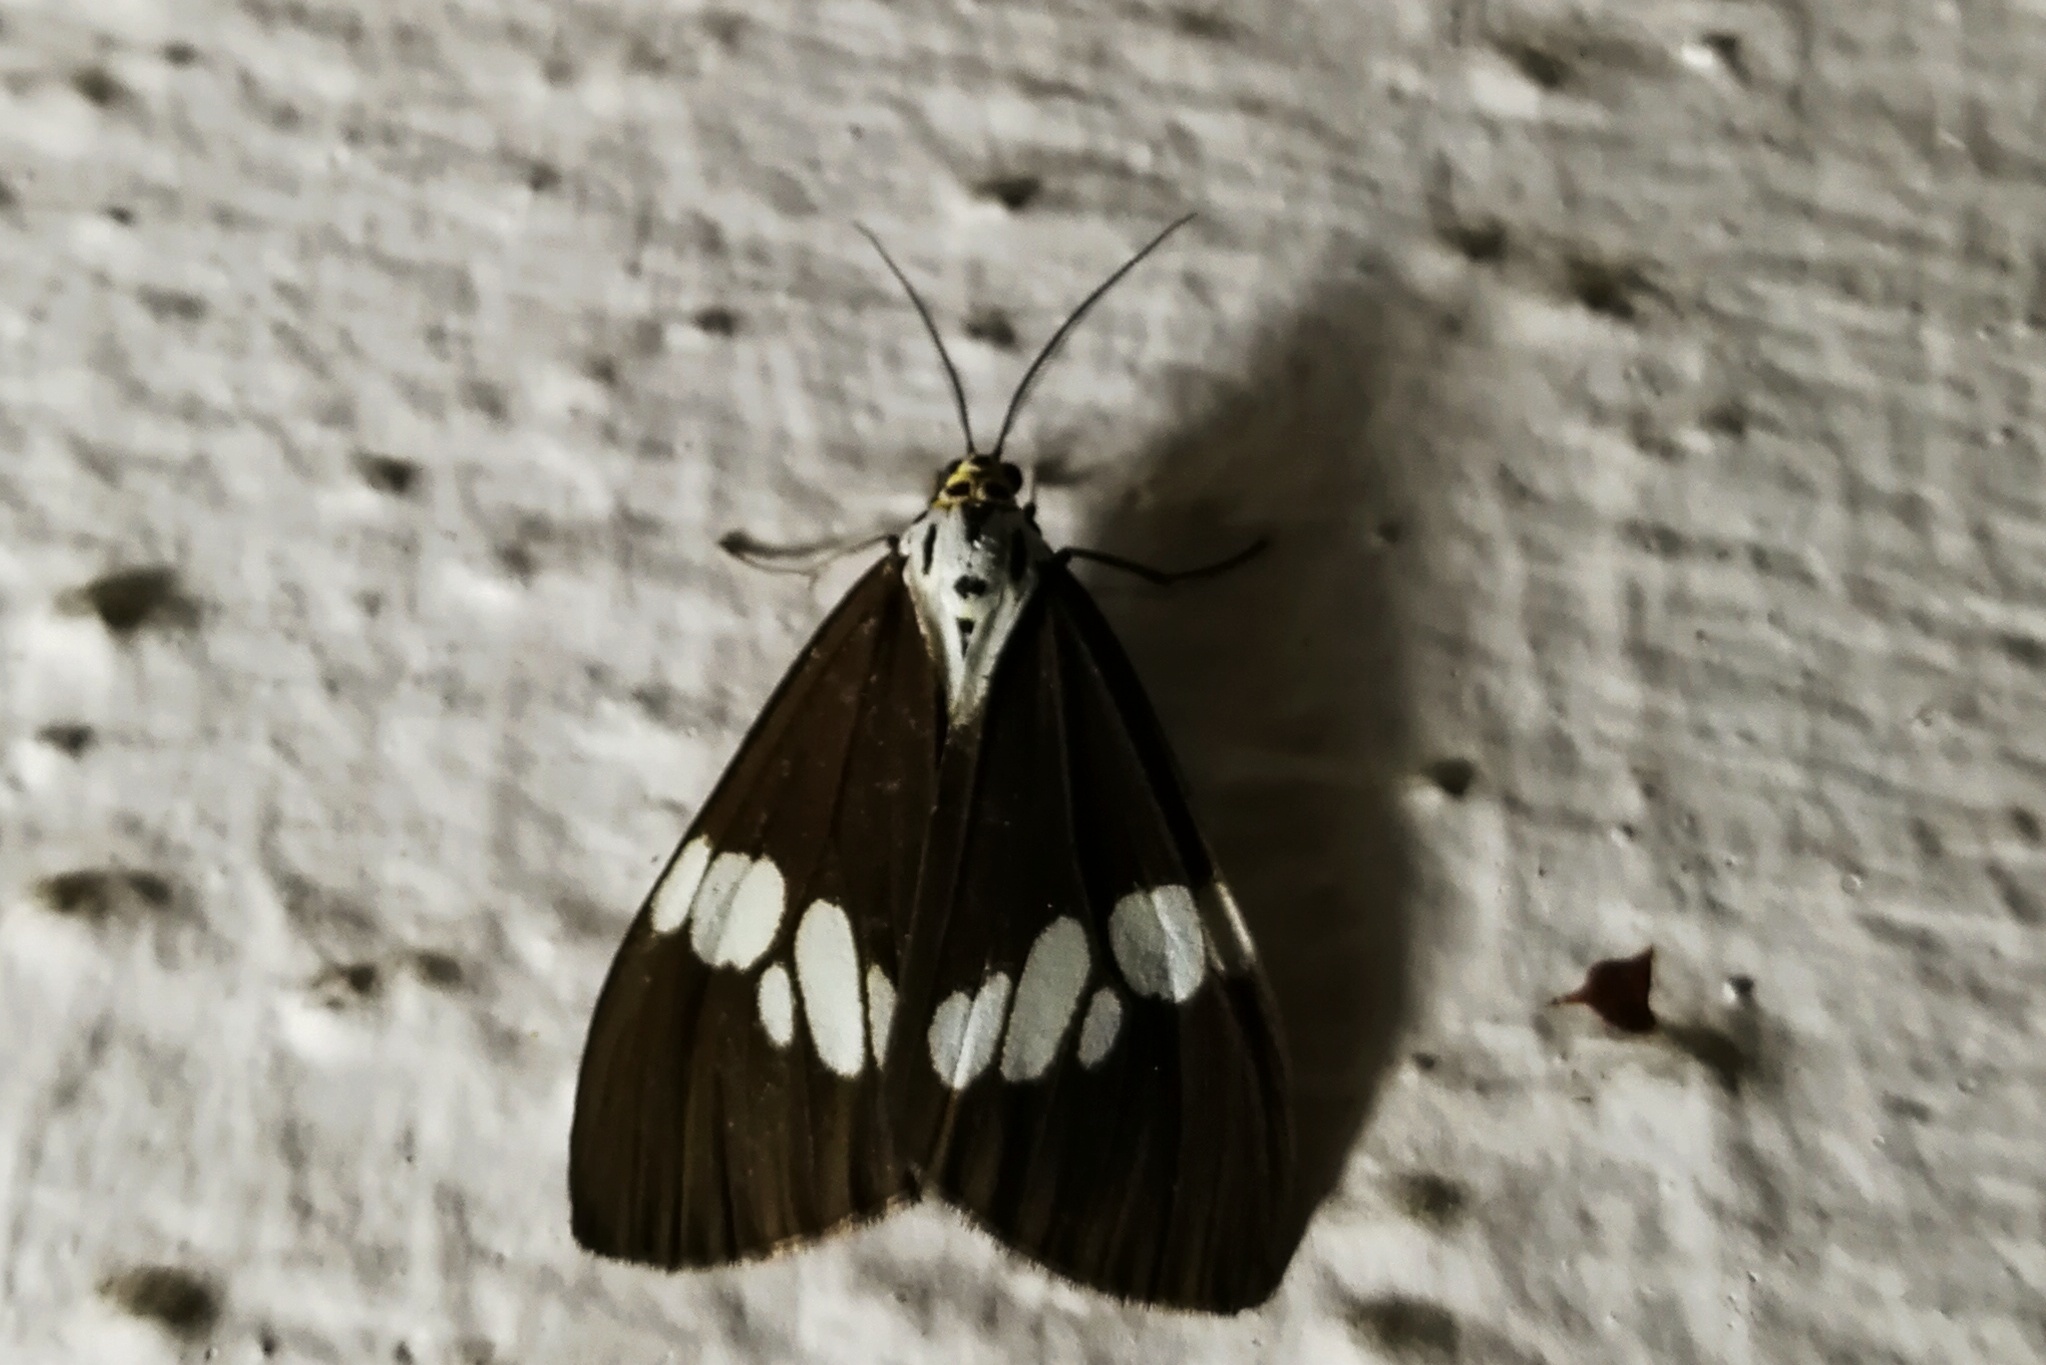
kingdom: Animalia
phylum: Arthropoda
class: Insecta
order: Lepidoptera
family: Erebidae
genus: Nyctemera
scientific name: Nyctemera lacticinia
